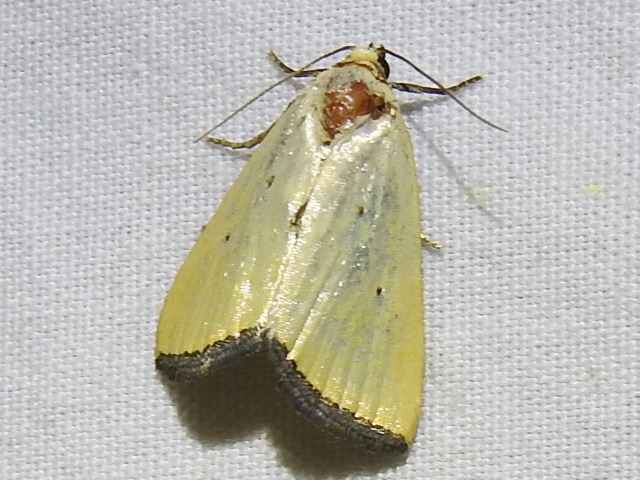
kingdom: Animalia
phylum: Arthropoda
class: Insecta
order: Lepidoptera
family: Noctuidae
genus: Marimatha
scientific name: Marimatha nigrofimbria
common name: Black-bordered lemon moth
